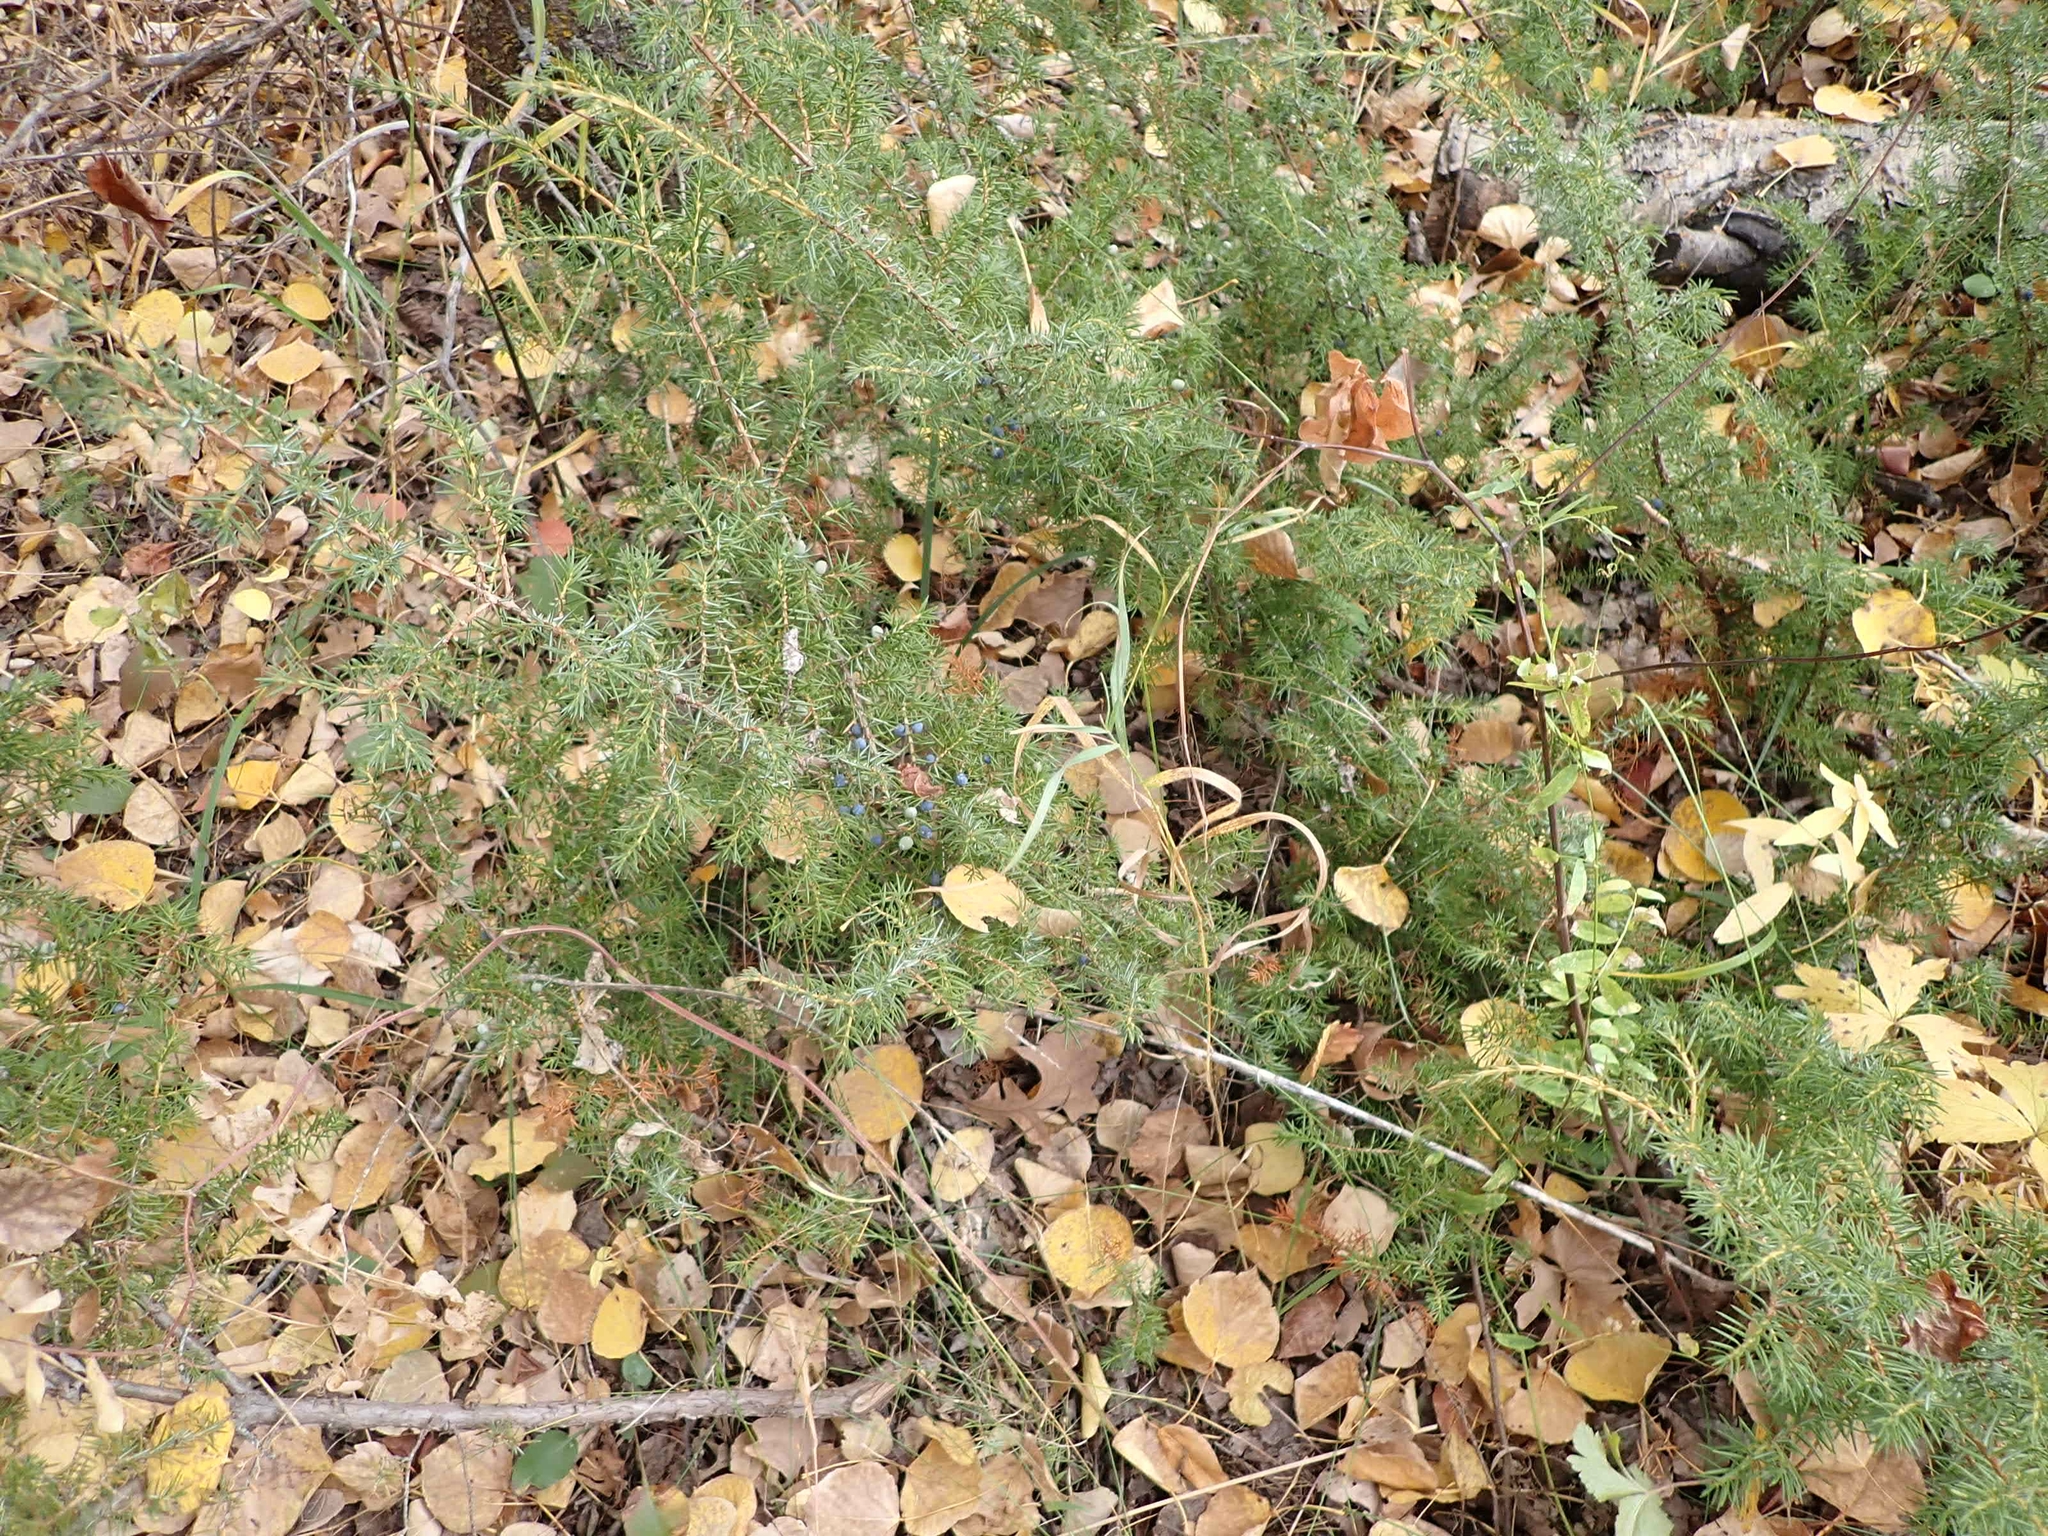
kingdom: Plantae
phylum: Tracheophyta
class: Pinopsida
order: Pinales
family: Cupressaceae
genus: Juniperus
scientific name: Juniperus communis
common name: Common juniper
